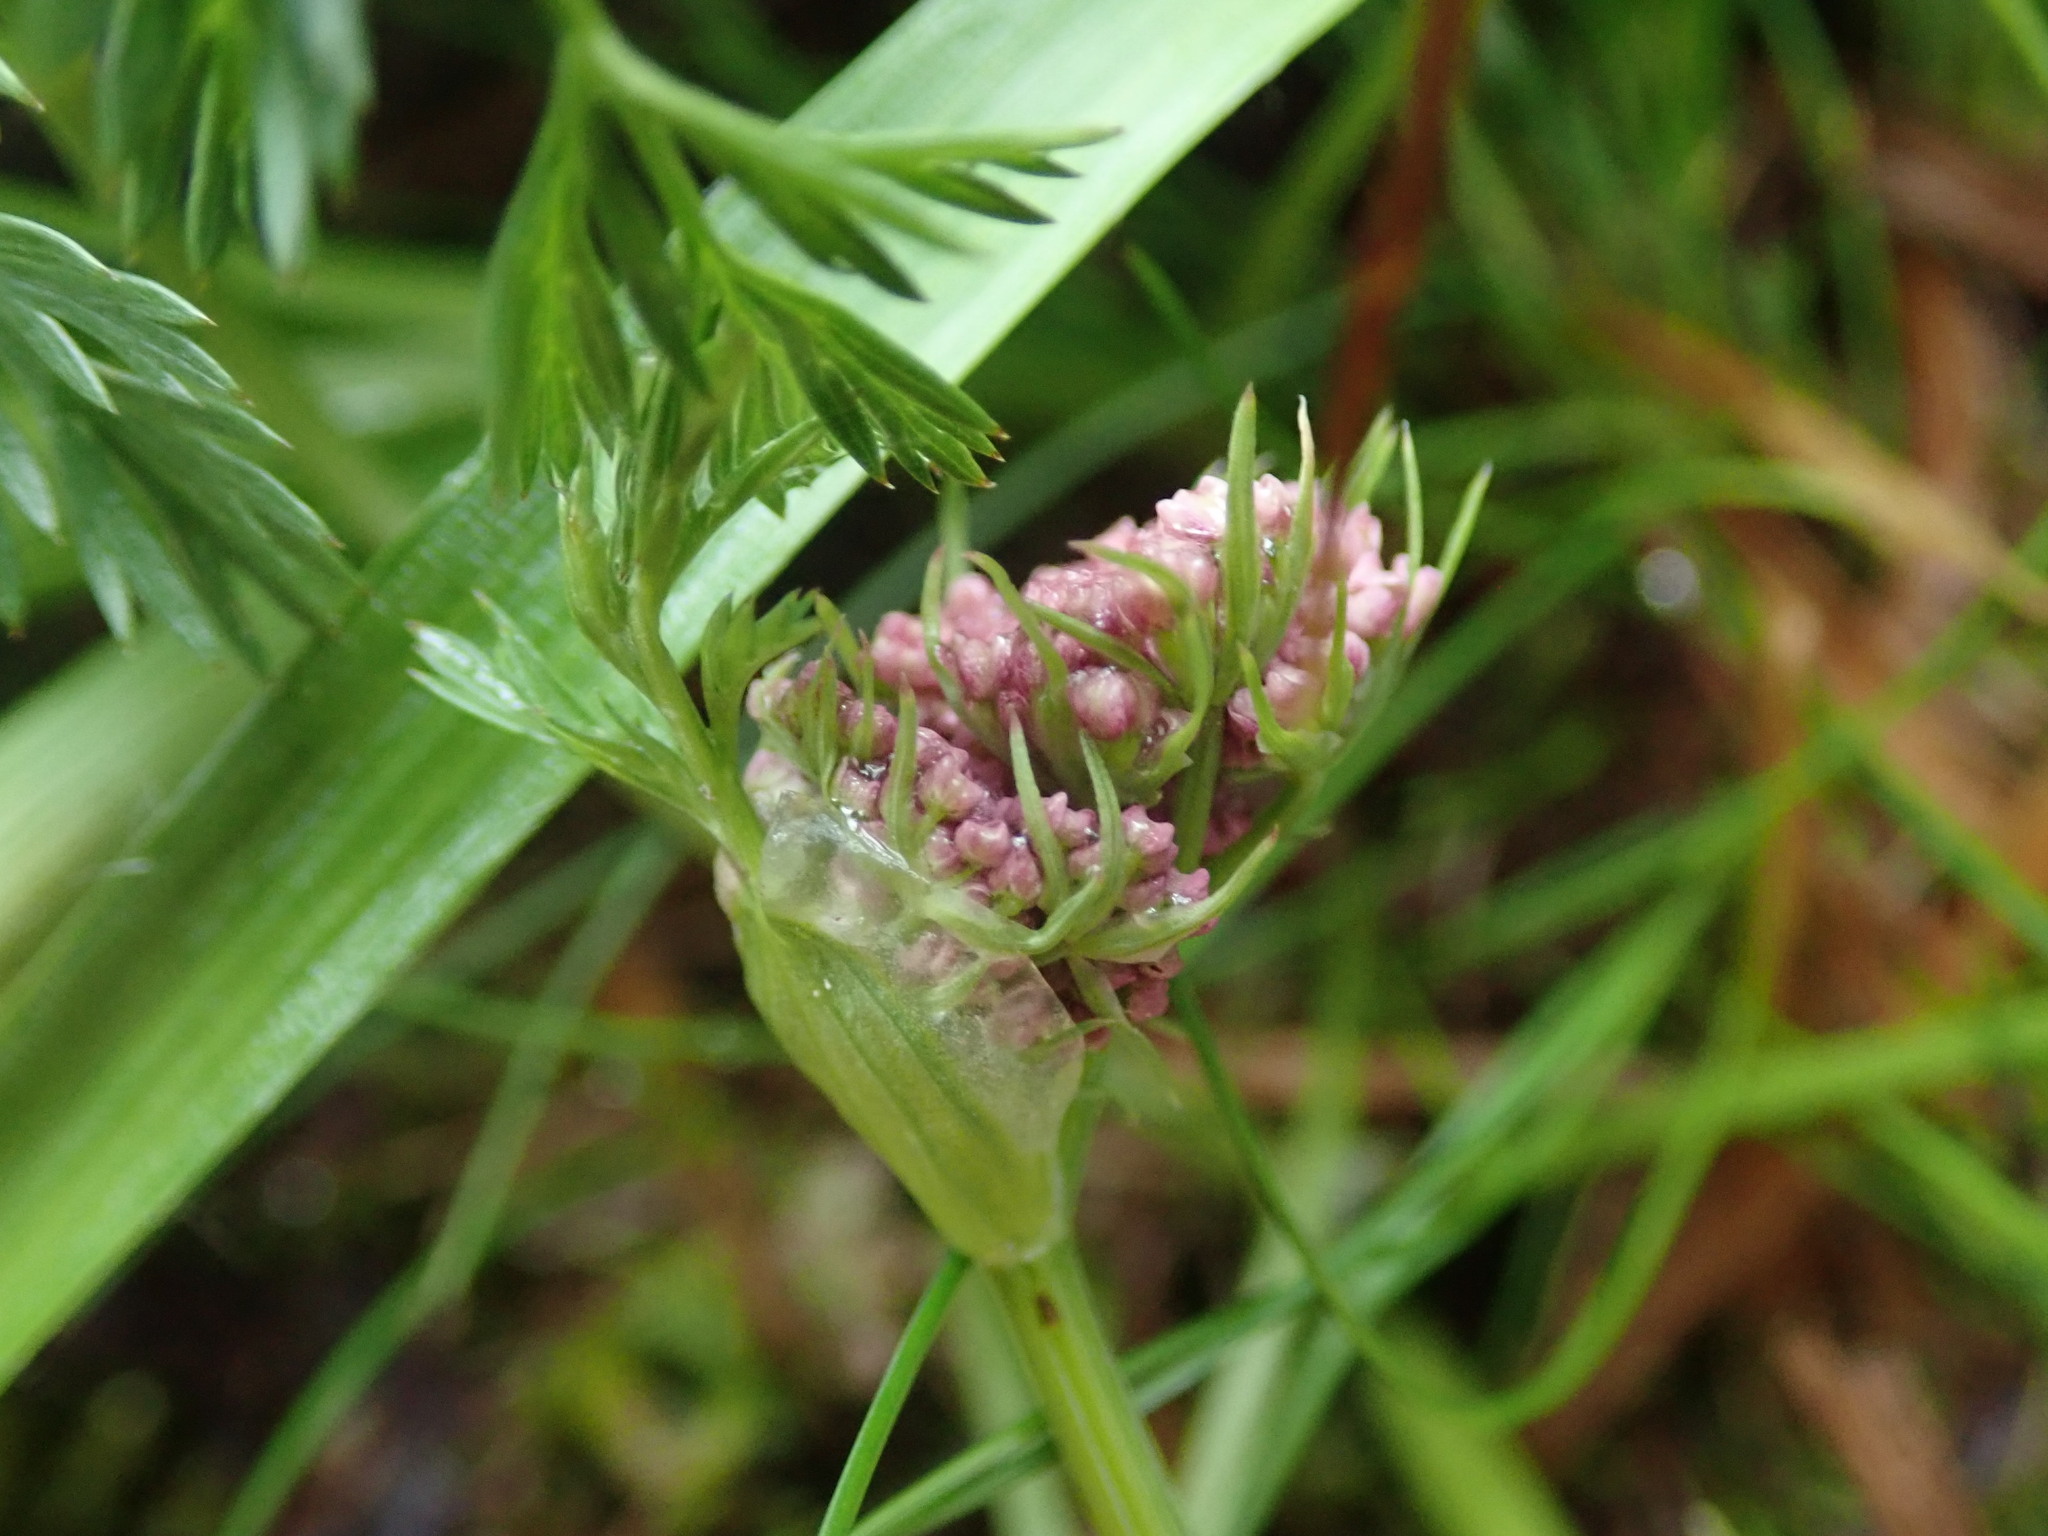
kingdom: Plantae
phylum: Tracheophyta
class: Magnoliopsida
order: Apiales
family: Apiaceae
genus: Mutellina
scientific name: Mutellina adonidifolia
